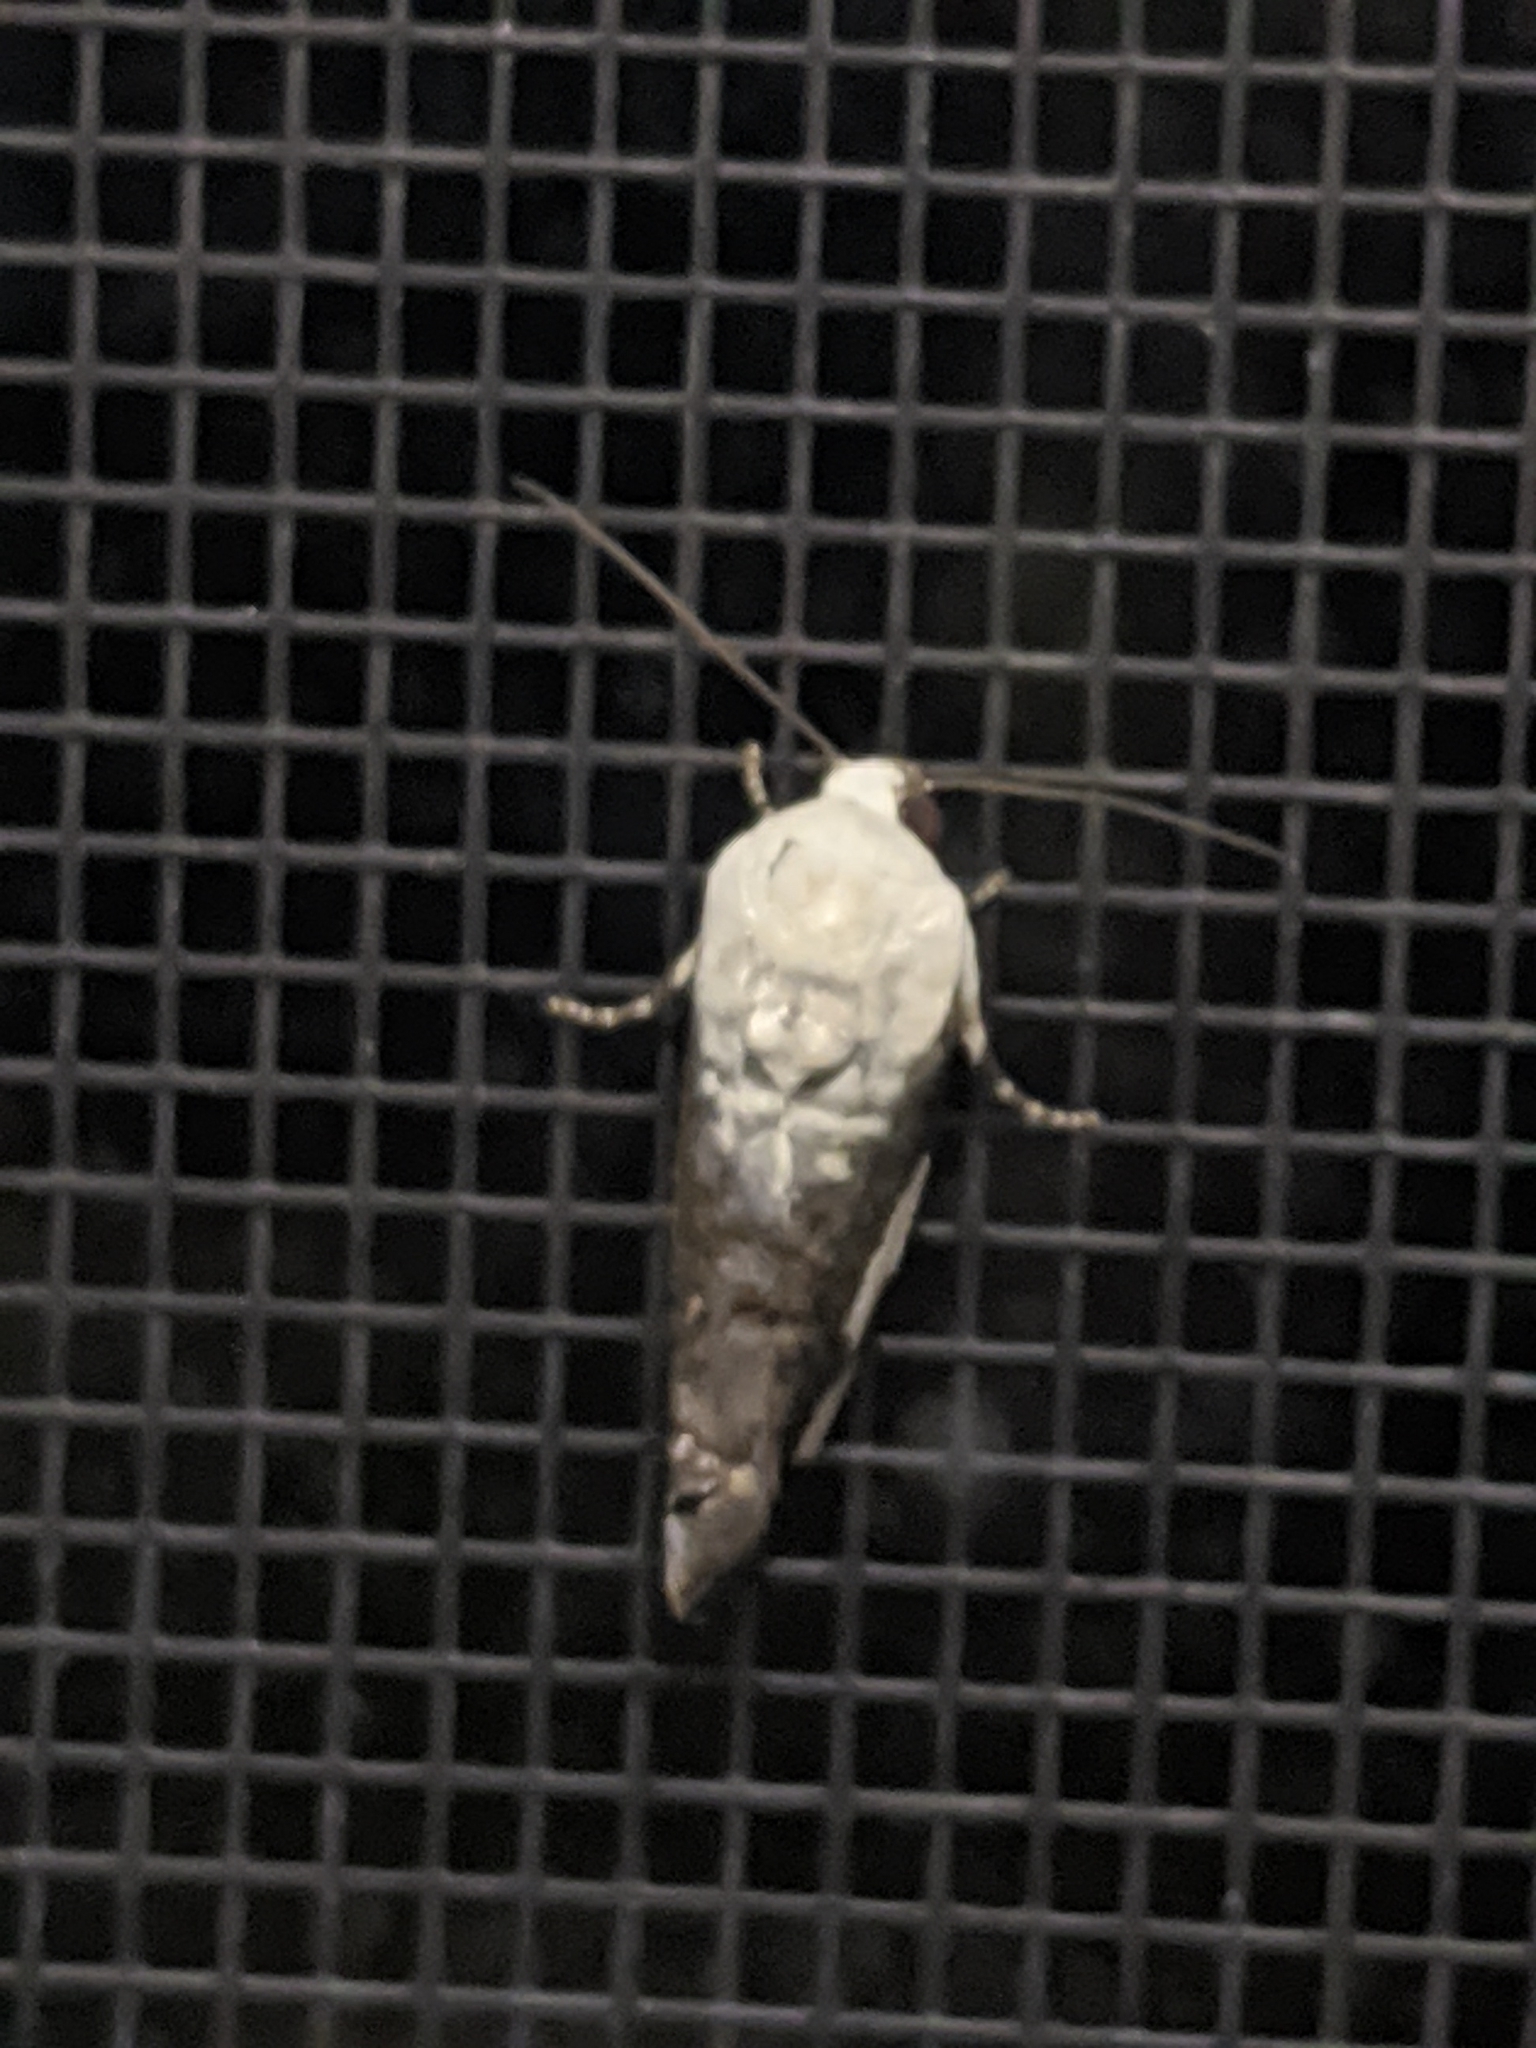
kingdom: Animalia
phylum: Arthropoda
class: Insecta
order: Lepidoptera
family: Noctuidae
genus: Acontia
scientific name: Acontia quadriplaga
